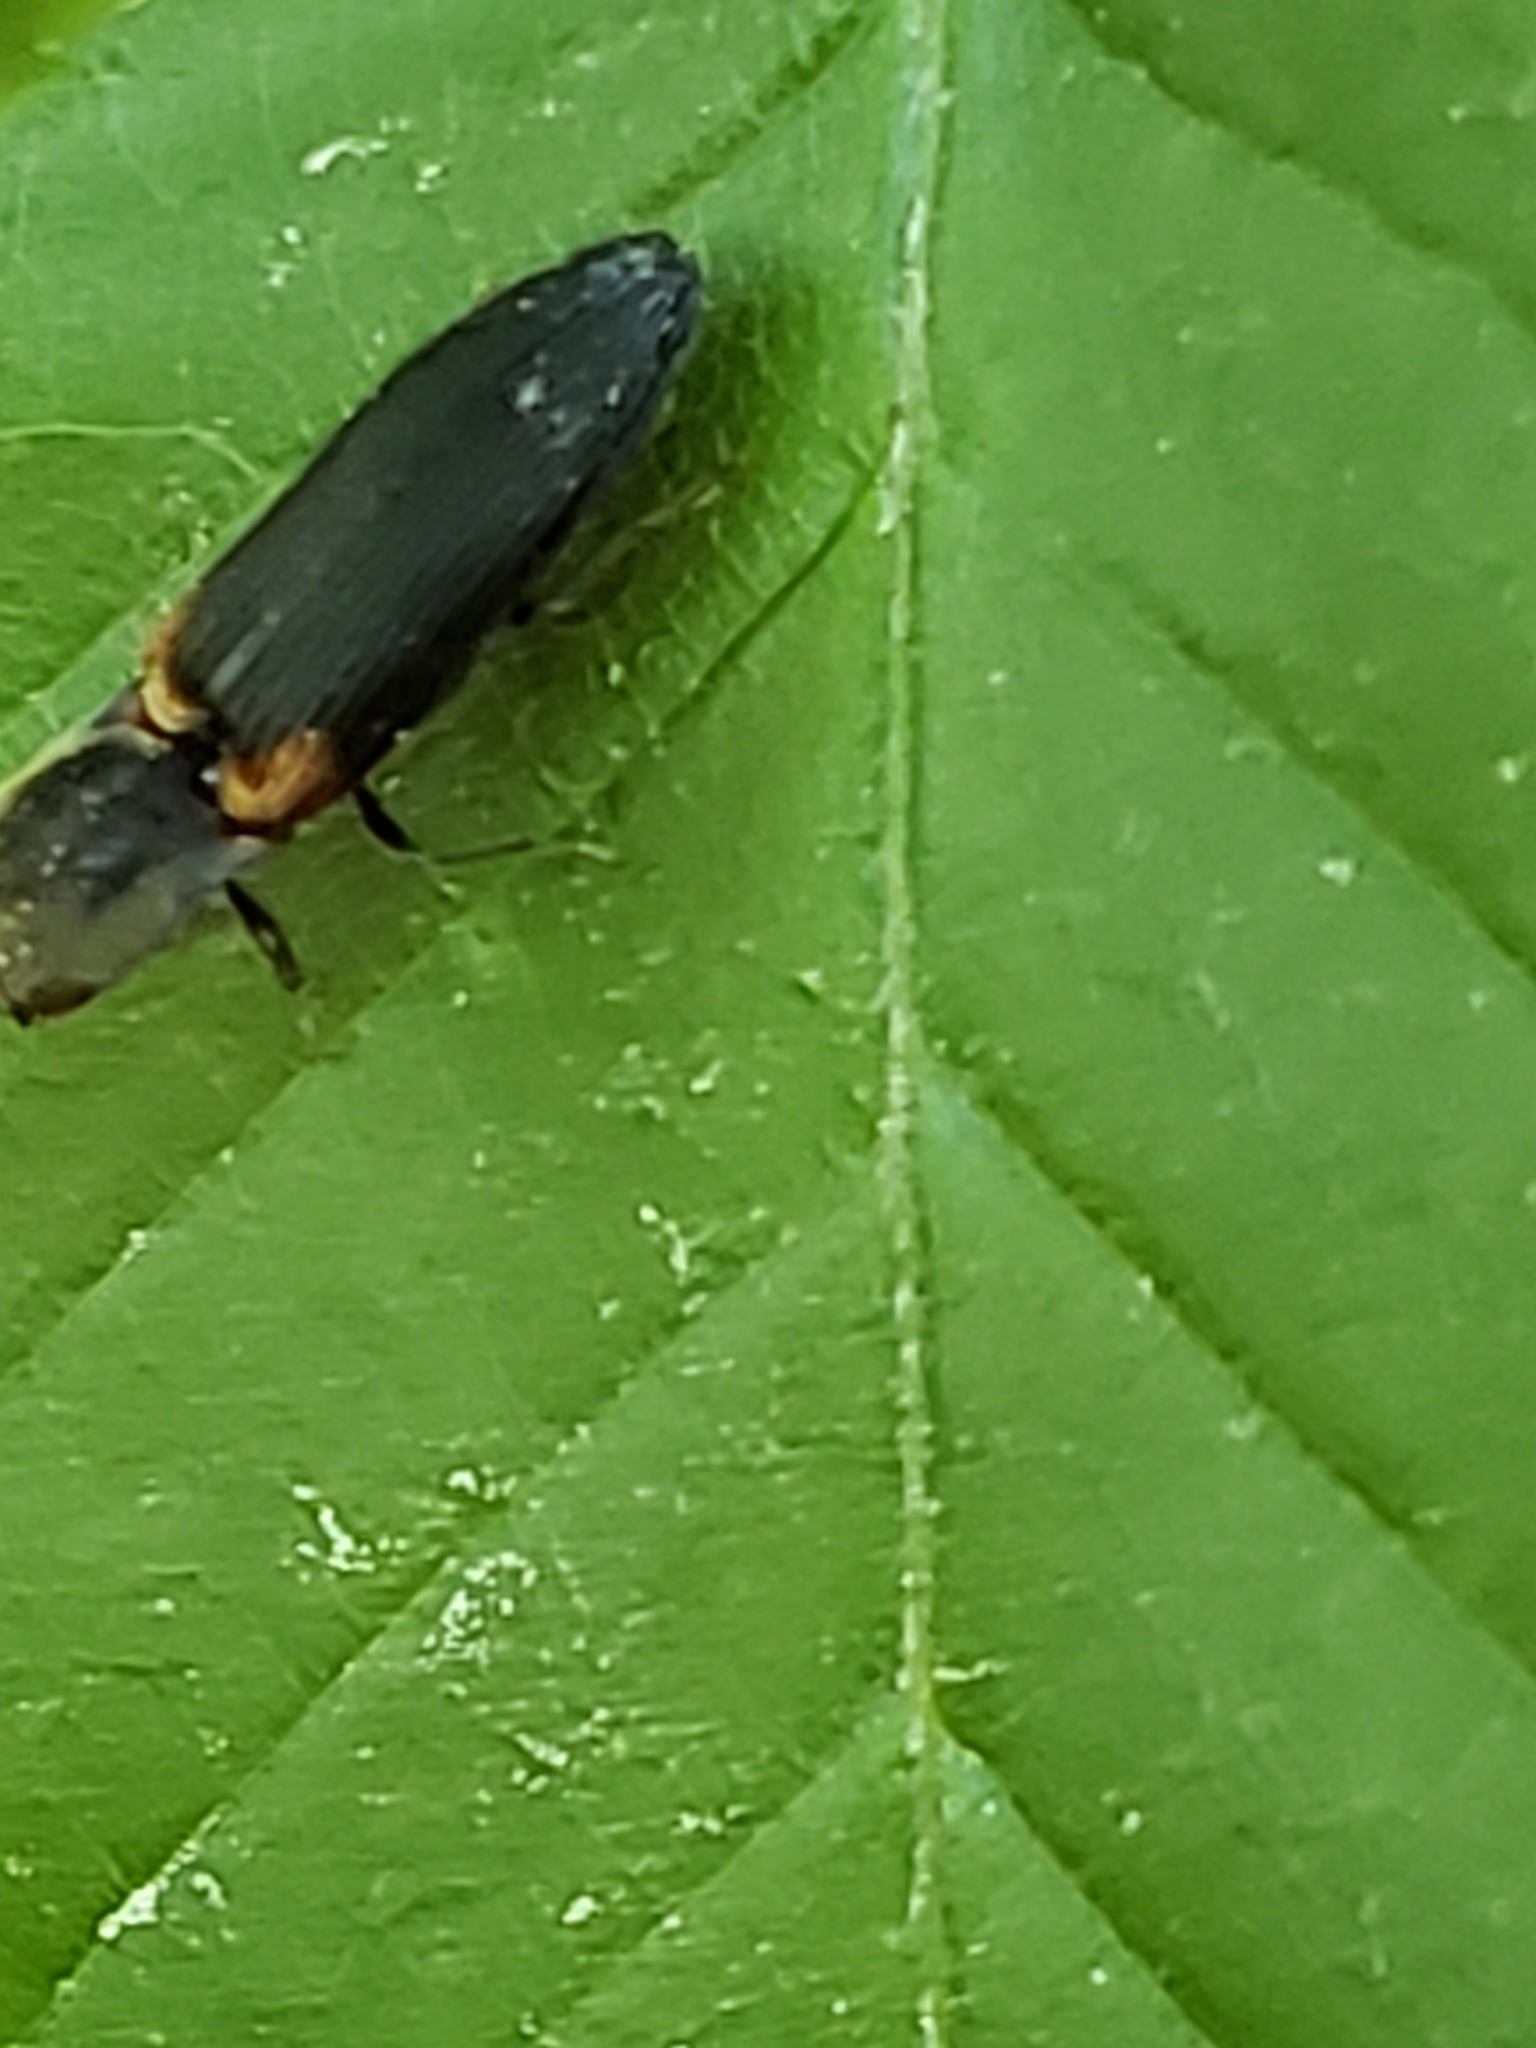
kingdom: Animalia
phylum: Arthropoda
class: Insecta
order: Coleoptera
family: Elateridae
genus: Athous
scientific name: Athous scapularis
